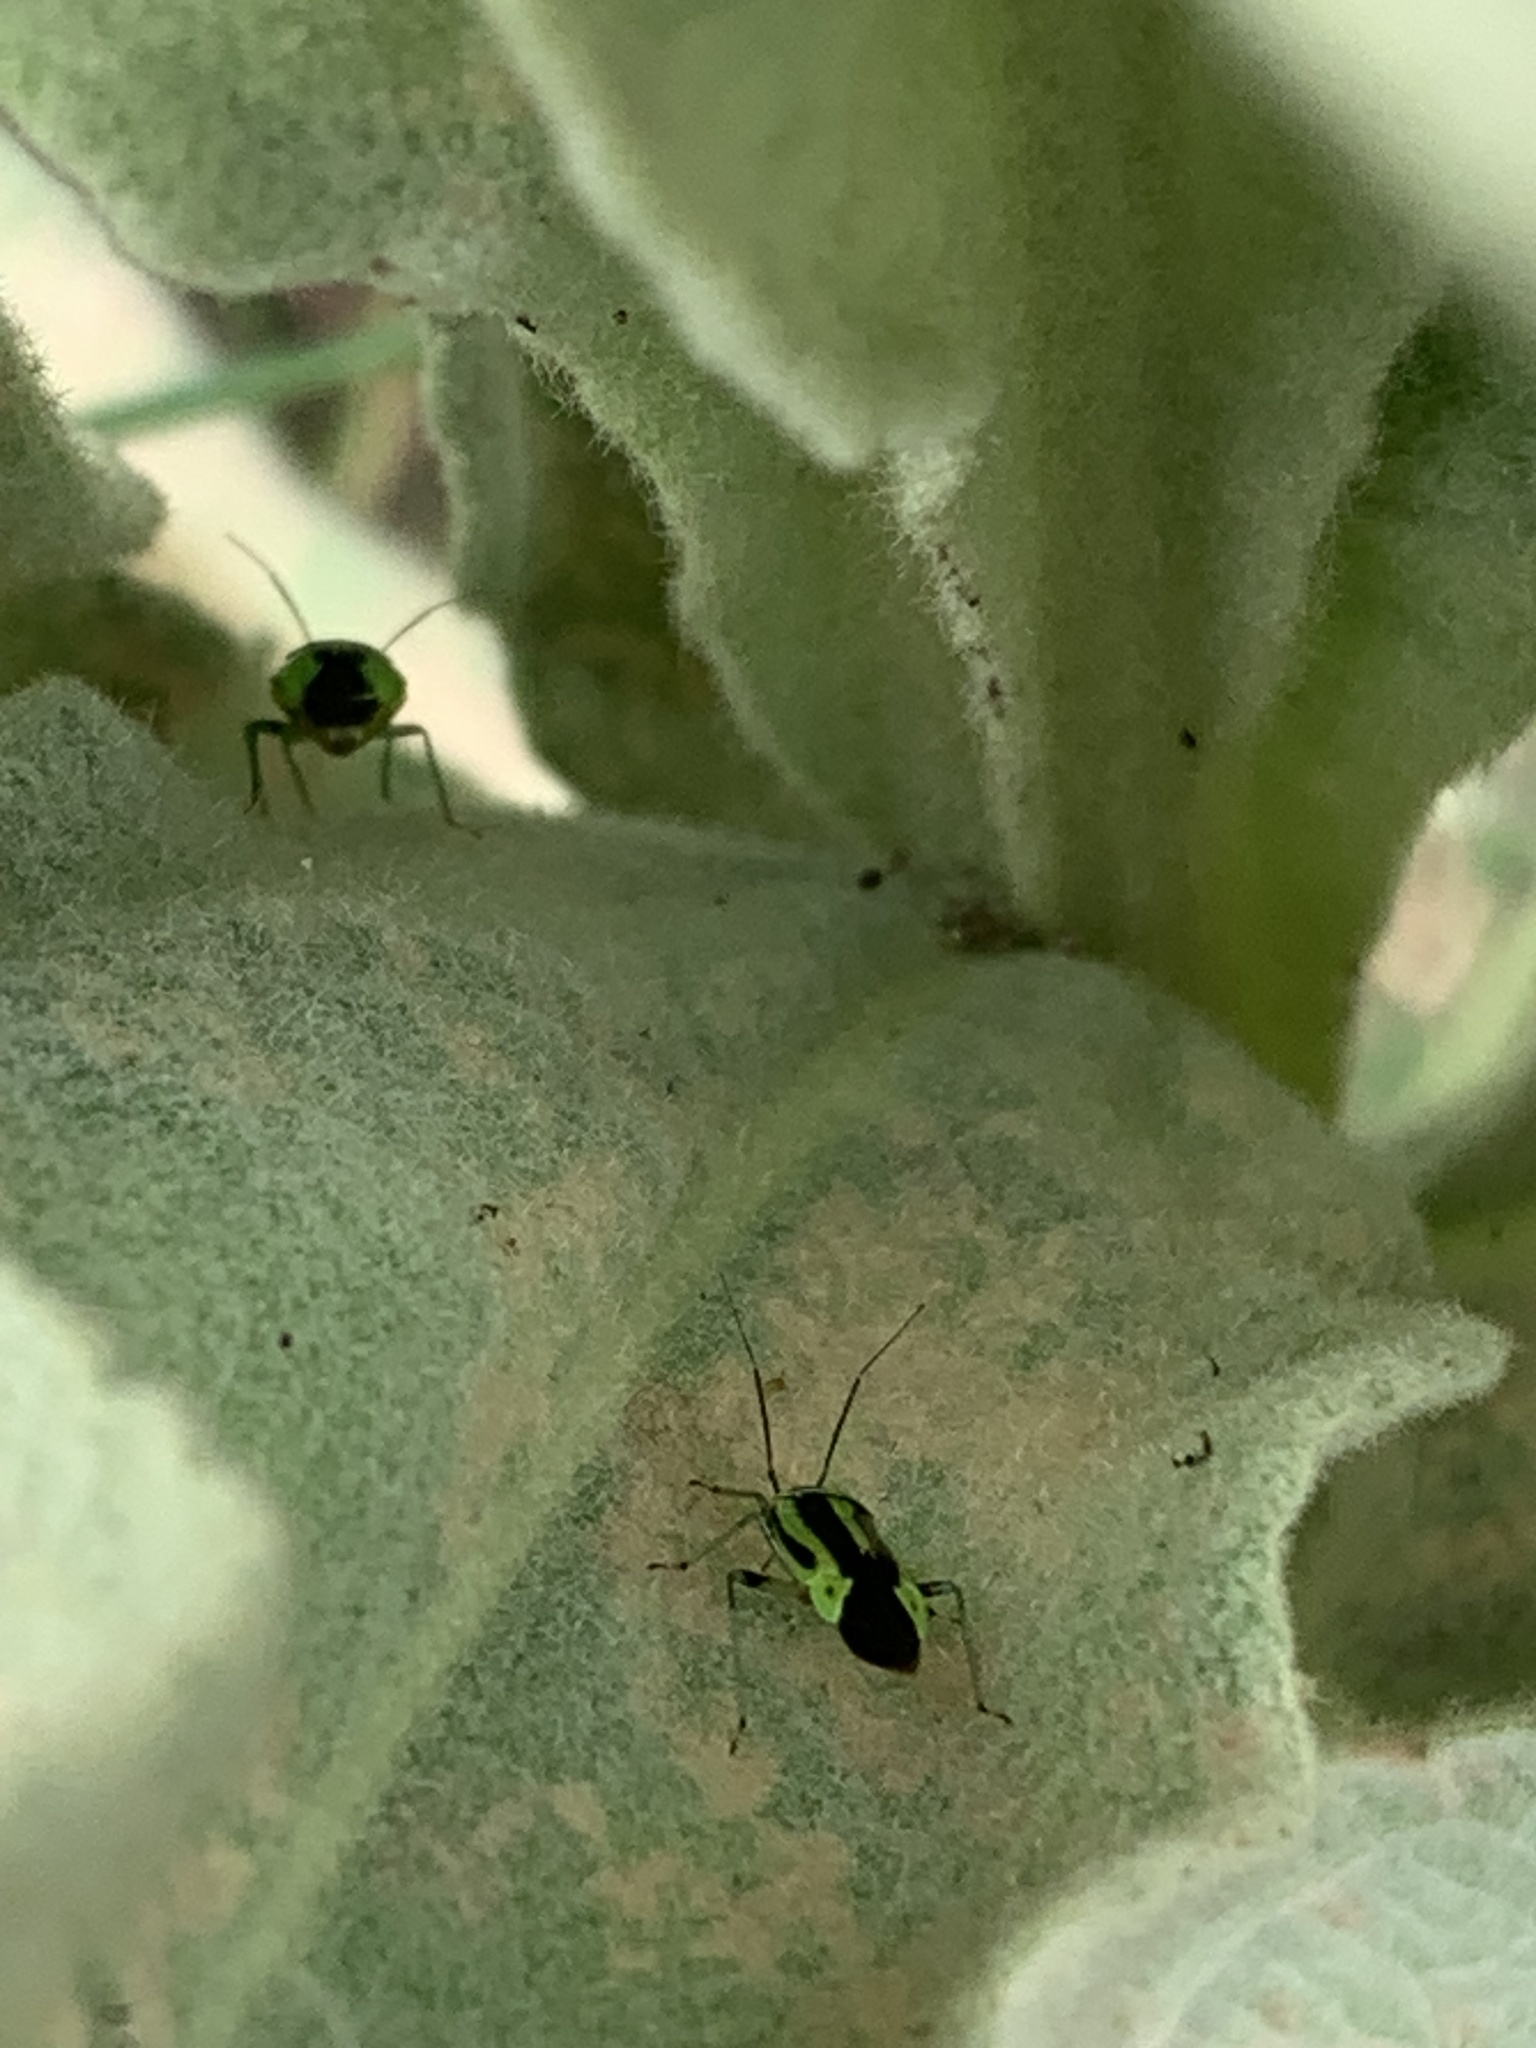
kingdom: Animalia
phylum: Arthropoda
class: Insecta
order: Hemiptera
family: Miridae
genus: Poecilocapsus
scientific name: Poecilocapsus lineatus
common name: Four-lined plant bug
